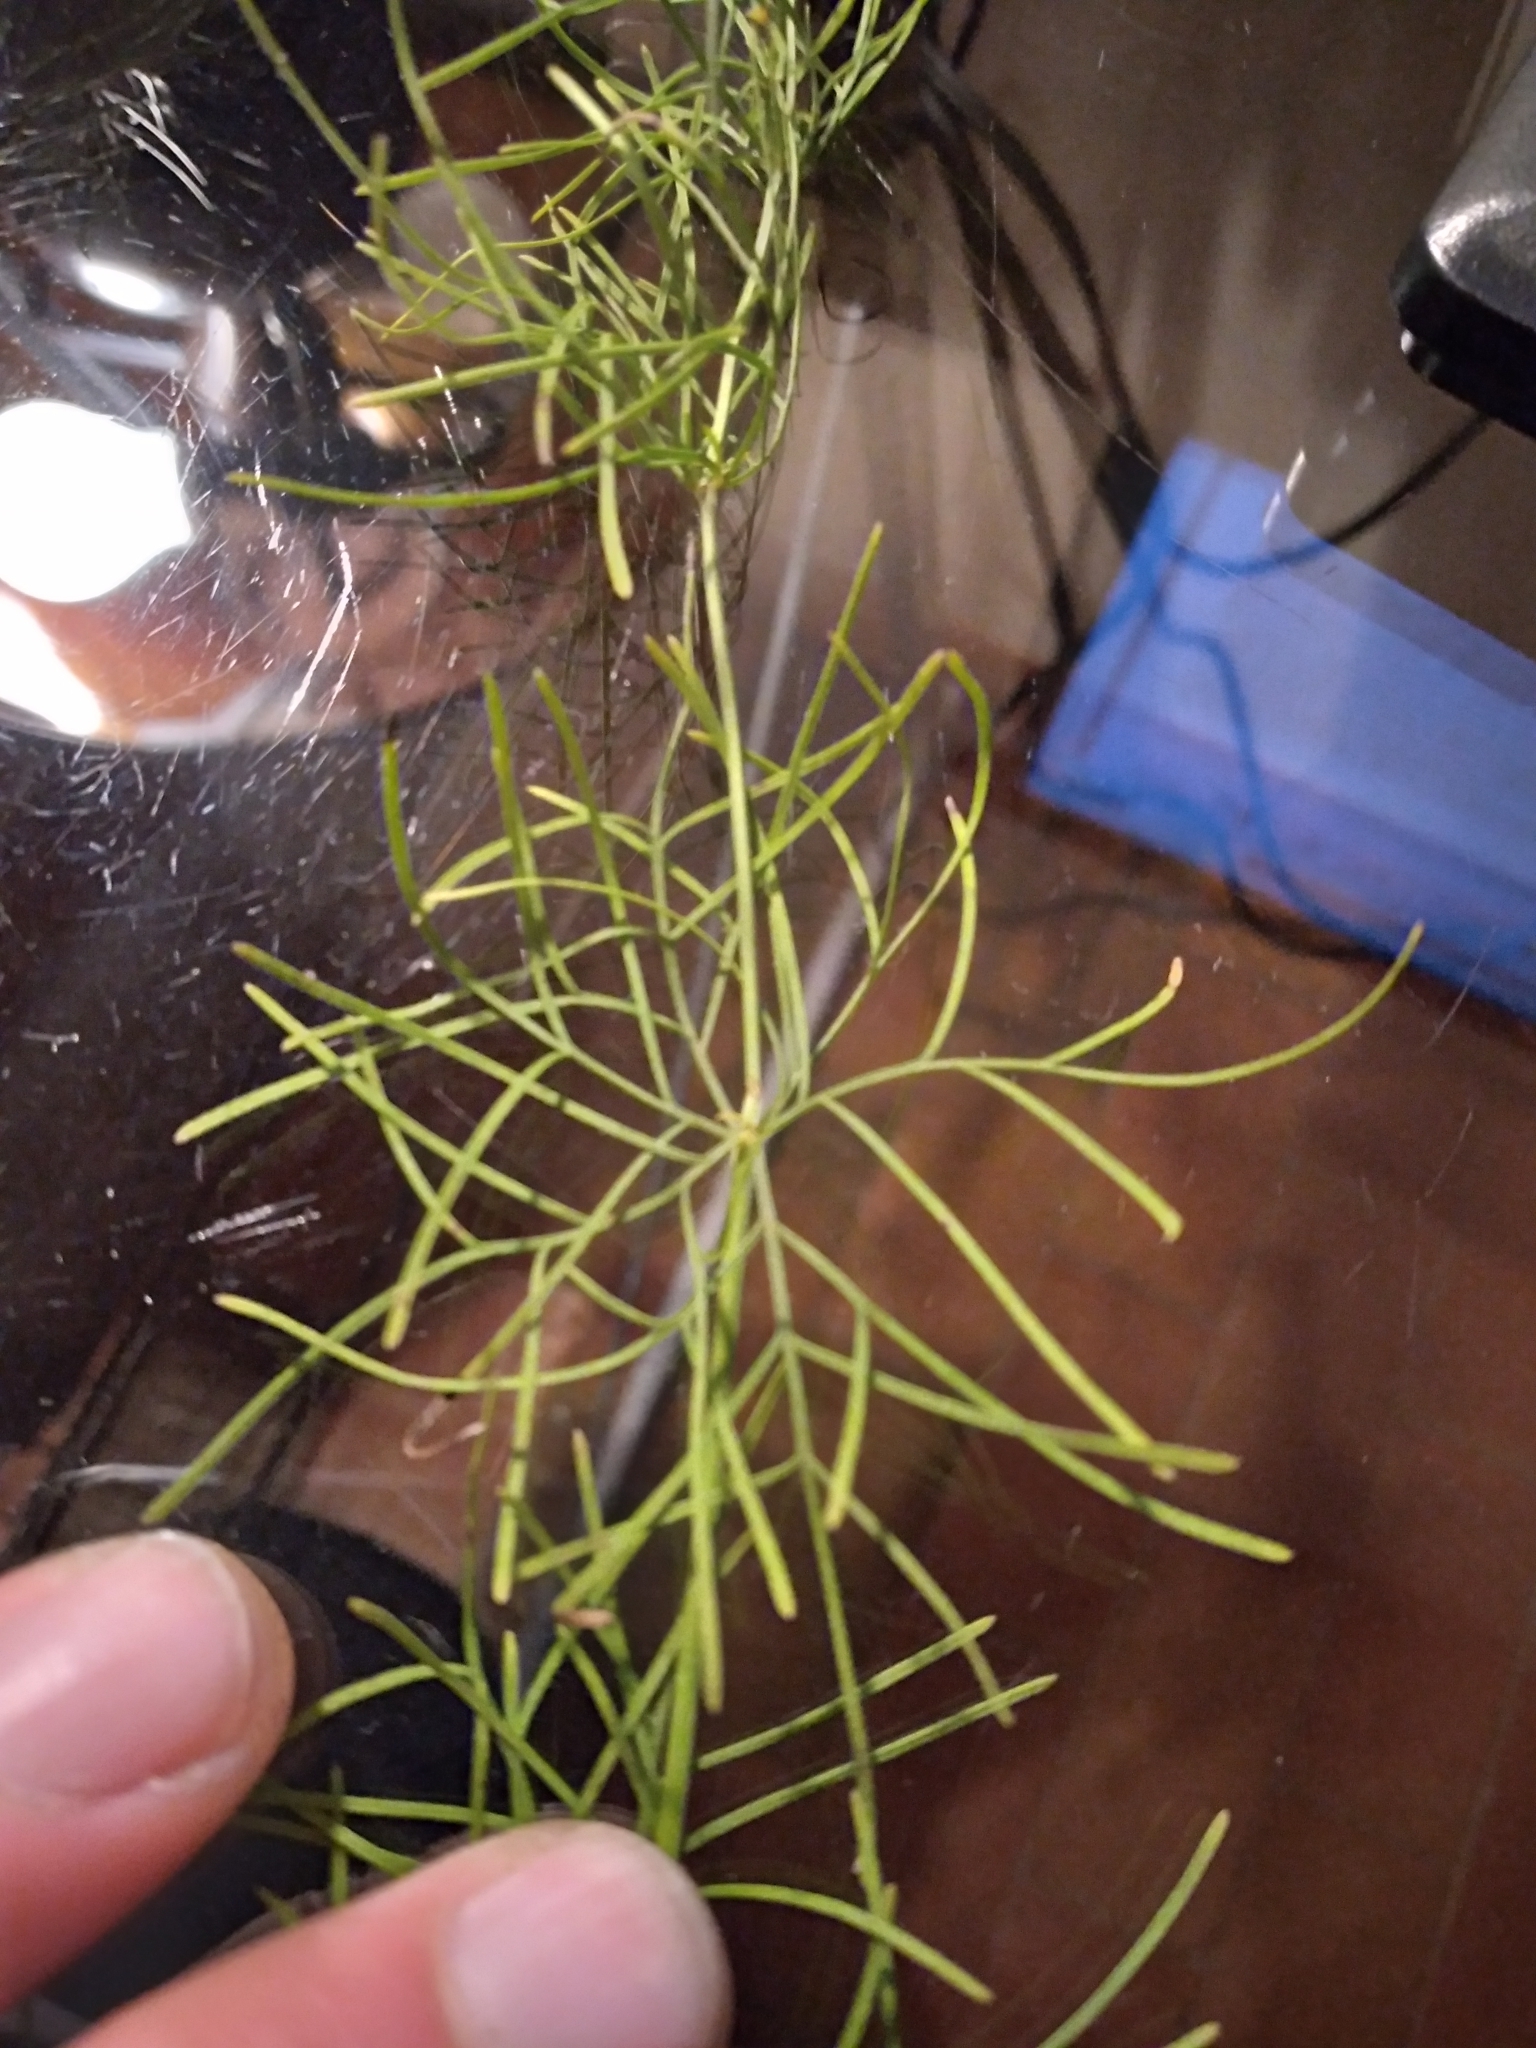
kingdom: Plantae
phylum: Tracheophyta
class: Magnoliopsida
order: Asterales
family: Asteraceae
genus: Coreopsis
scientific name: Coreopsis verticillata
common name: Whorled tickseed
